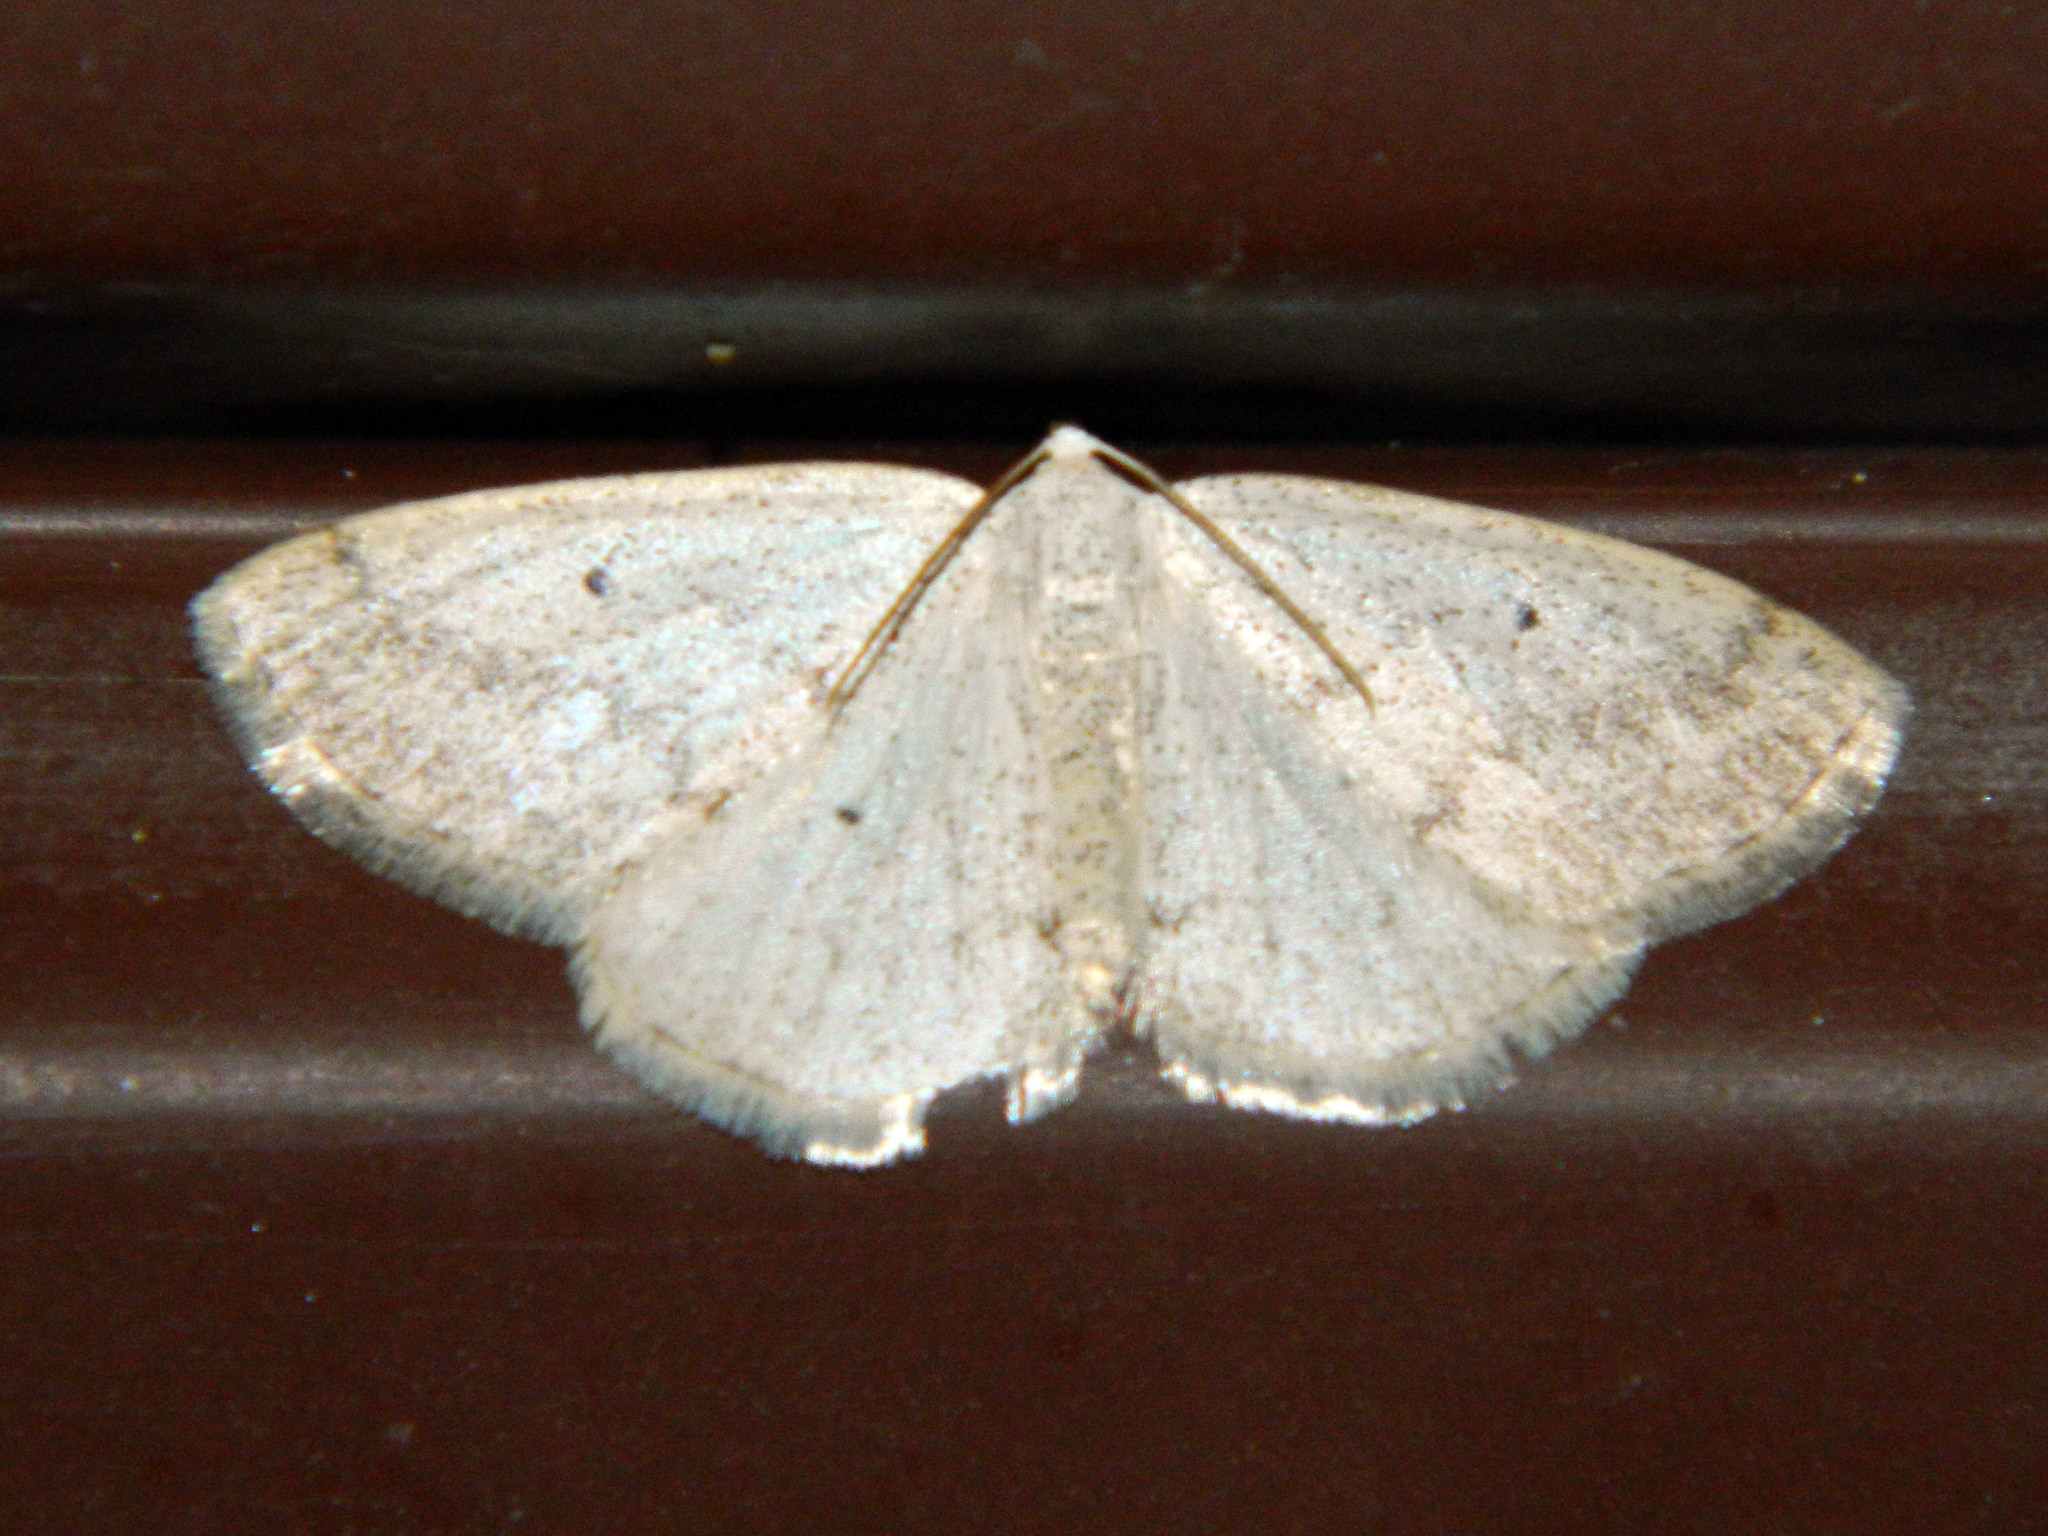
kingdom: Animalia
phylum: Arthropoda
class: Insecta
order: Lepidoptera
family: Geometridae
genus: Lomographa
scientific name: Lomographa glomeraria
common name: Gray spring moth
